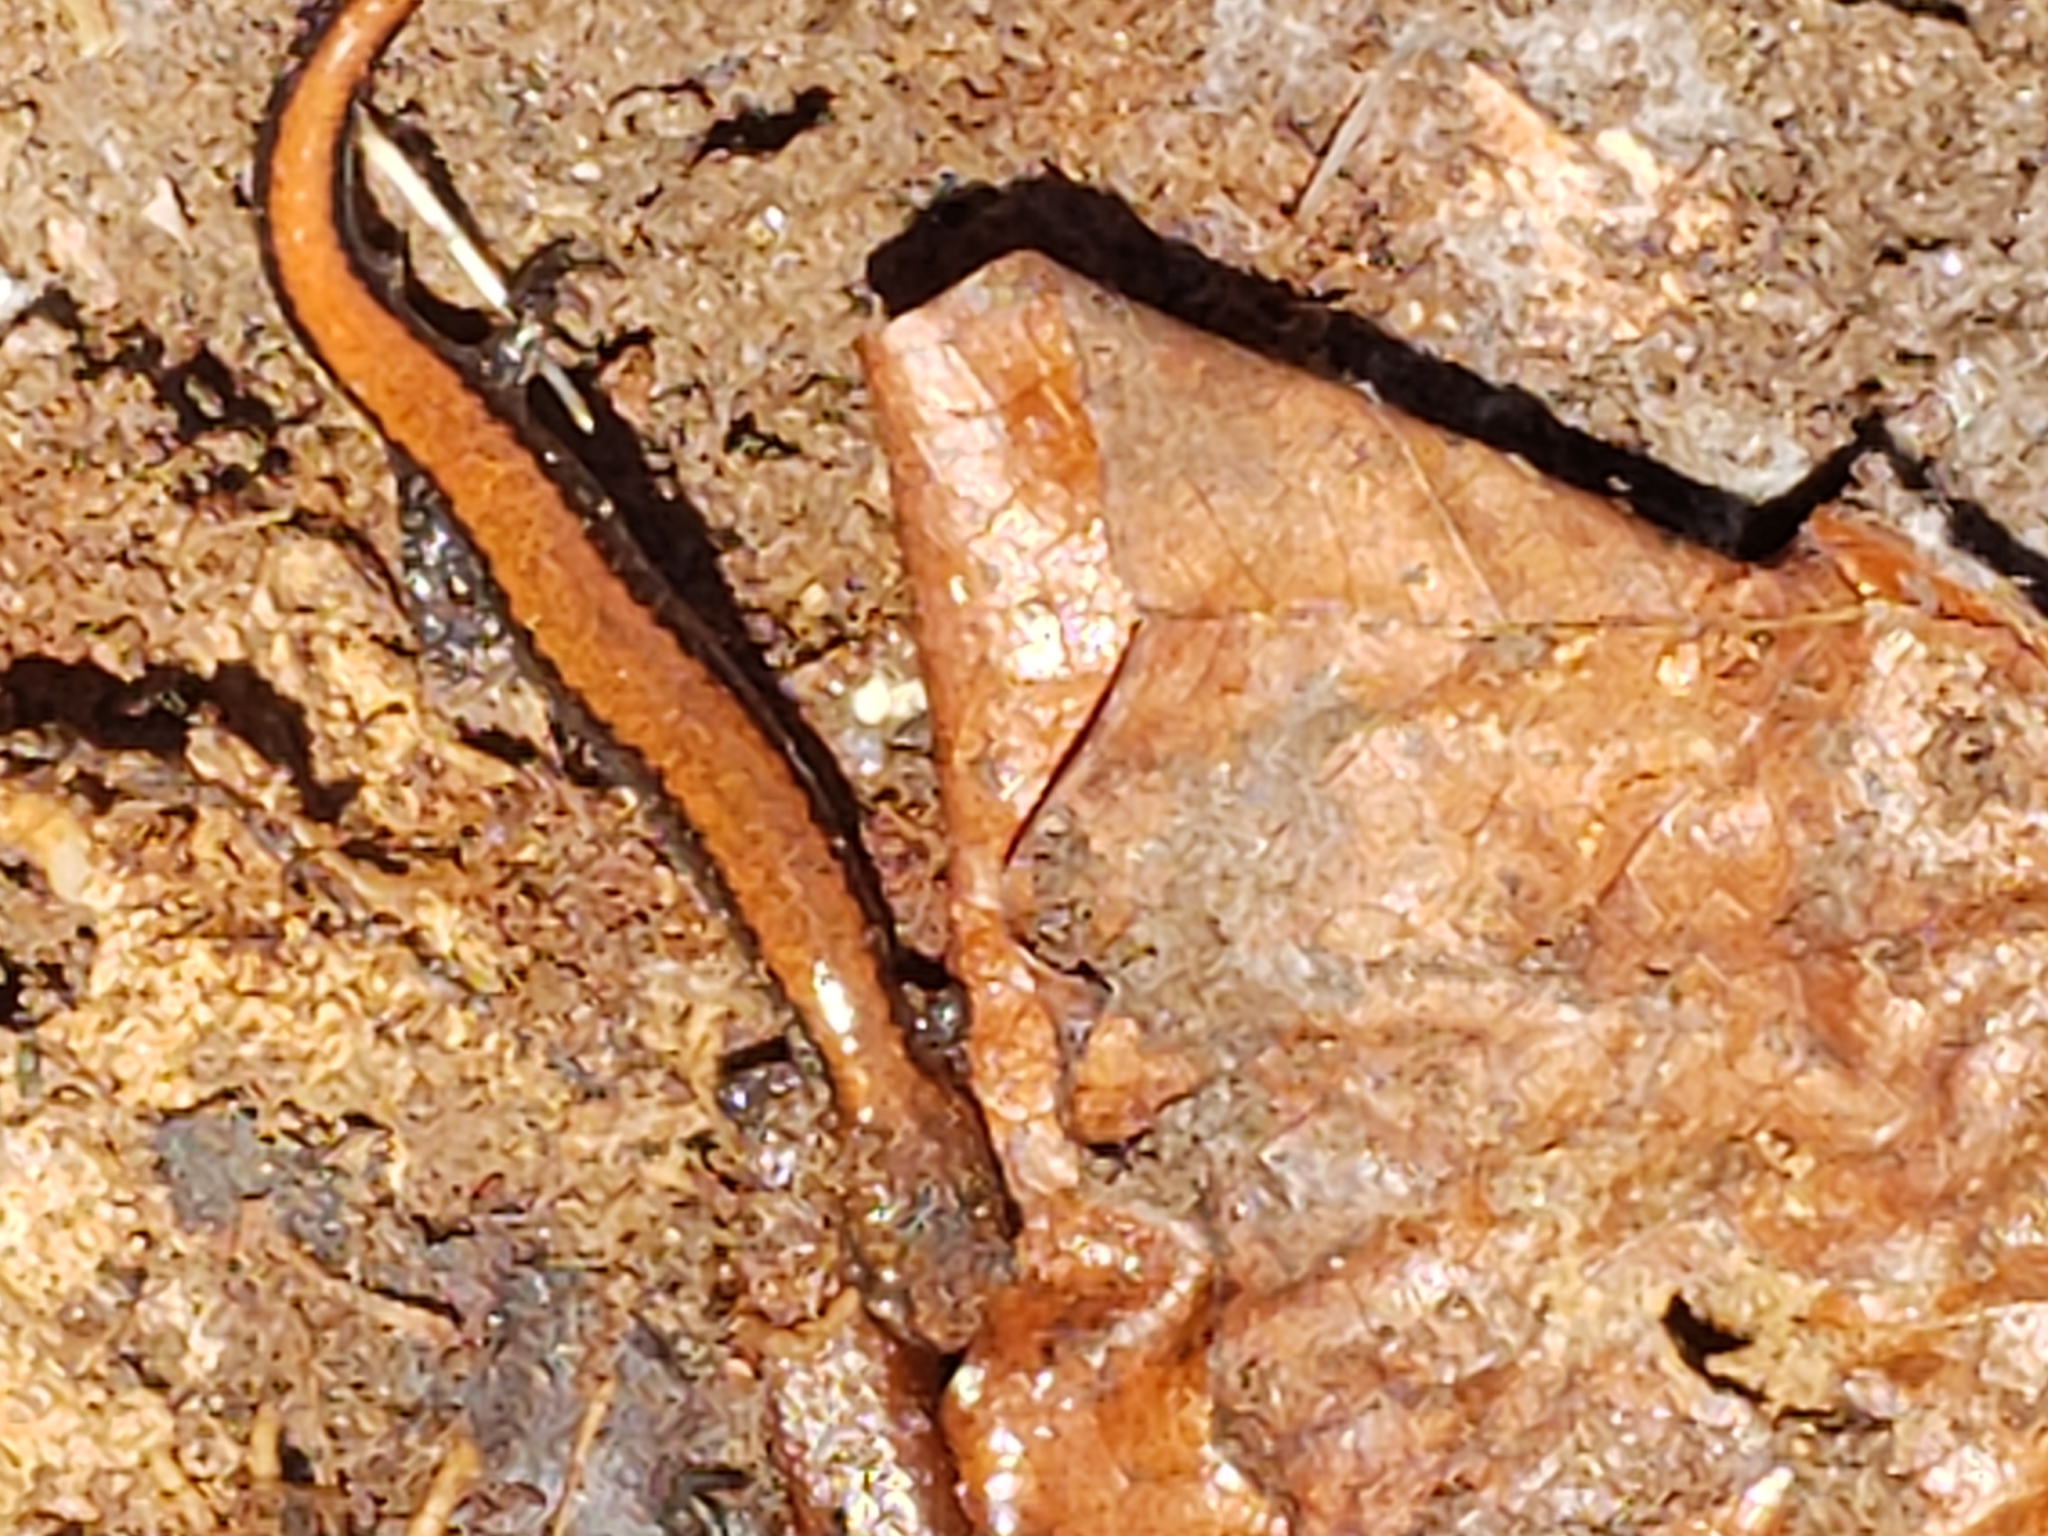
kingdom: Animalia
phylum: Chordata
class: Amphibia
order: Caudata
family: Plethodontidae
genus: Plethodon
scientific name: Plethodon cinereus
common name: Redback salamander
